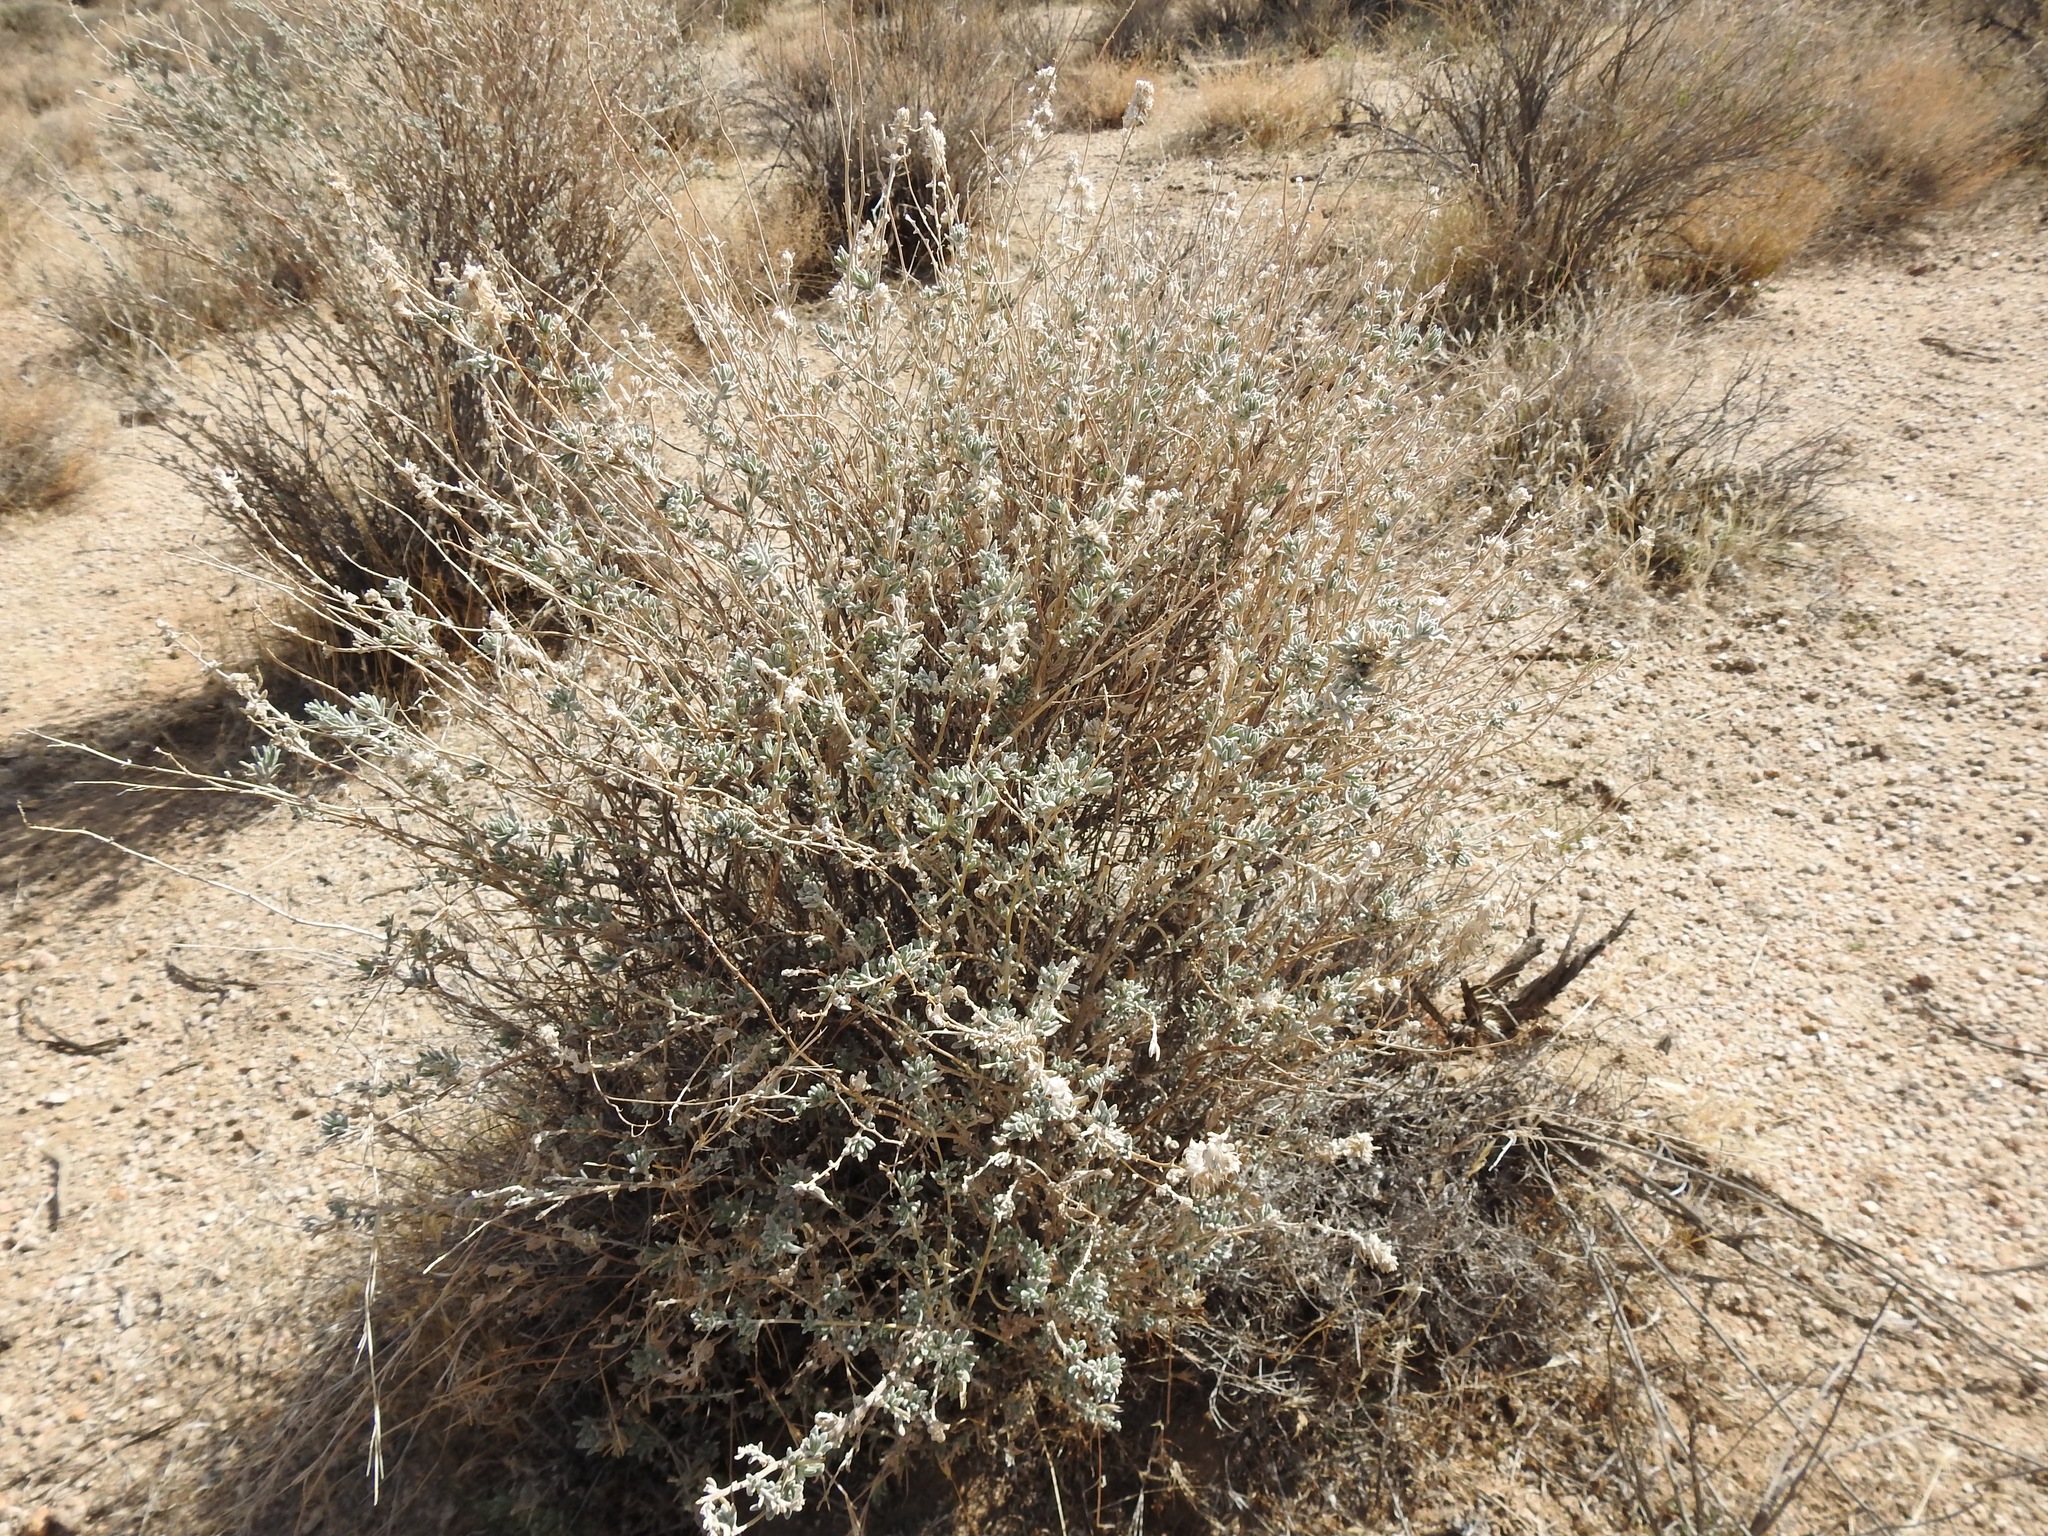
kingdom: Plantae
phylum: Tracheophyta
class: Magnoliopsida
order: Caryophyllales
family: Amaranthaceae
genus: Krascheninnikovia
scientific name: Krascheninnikovia lanata
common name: Winterfat
